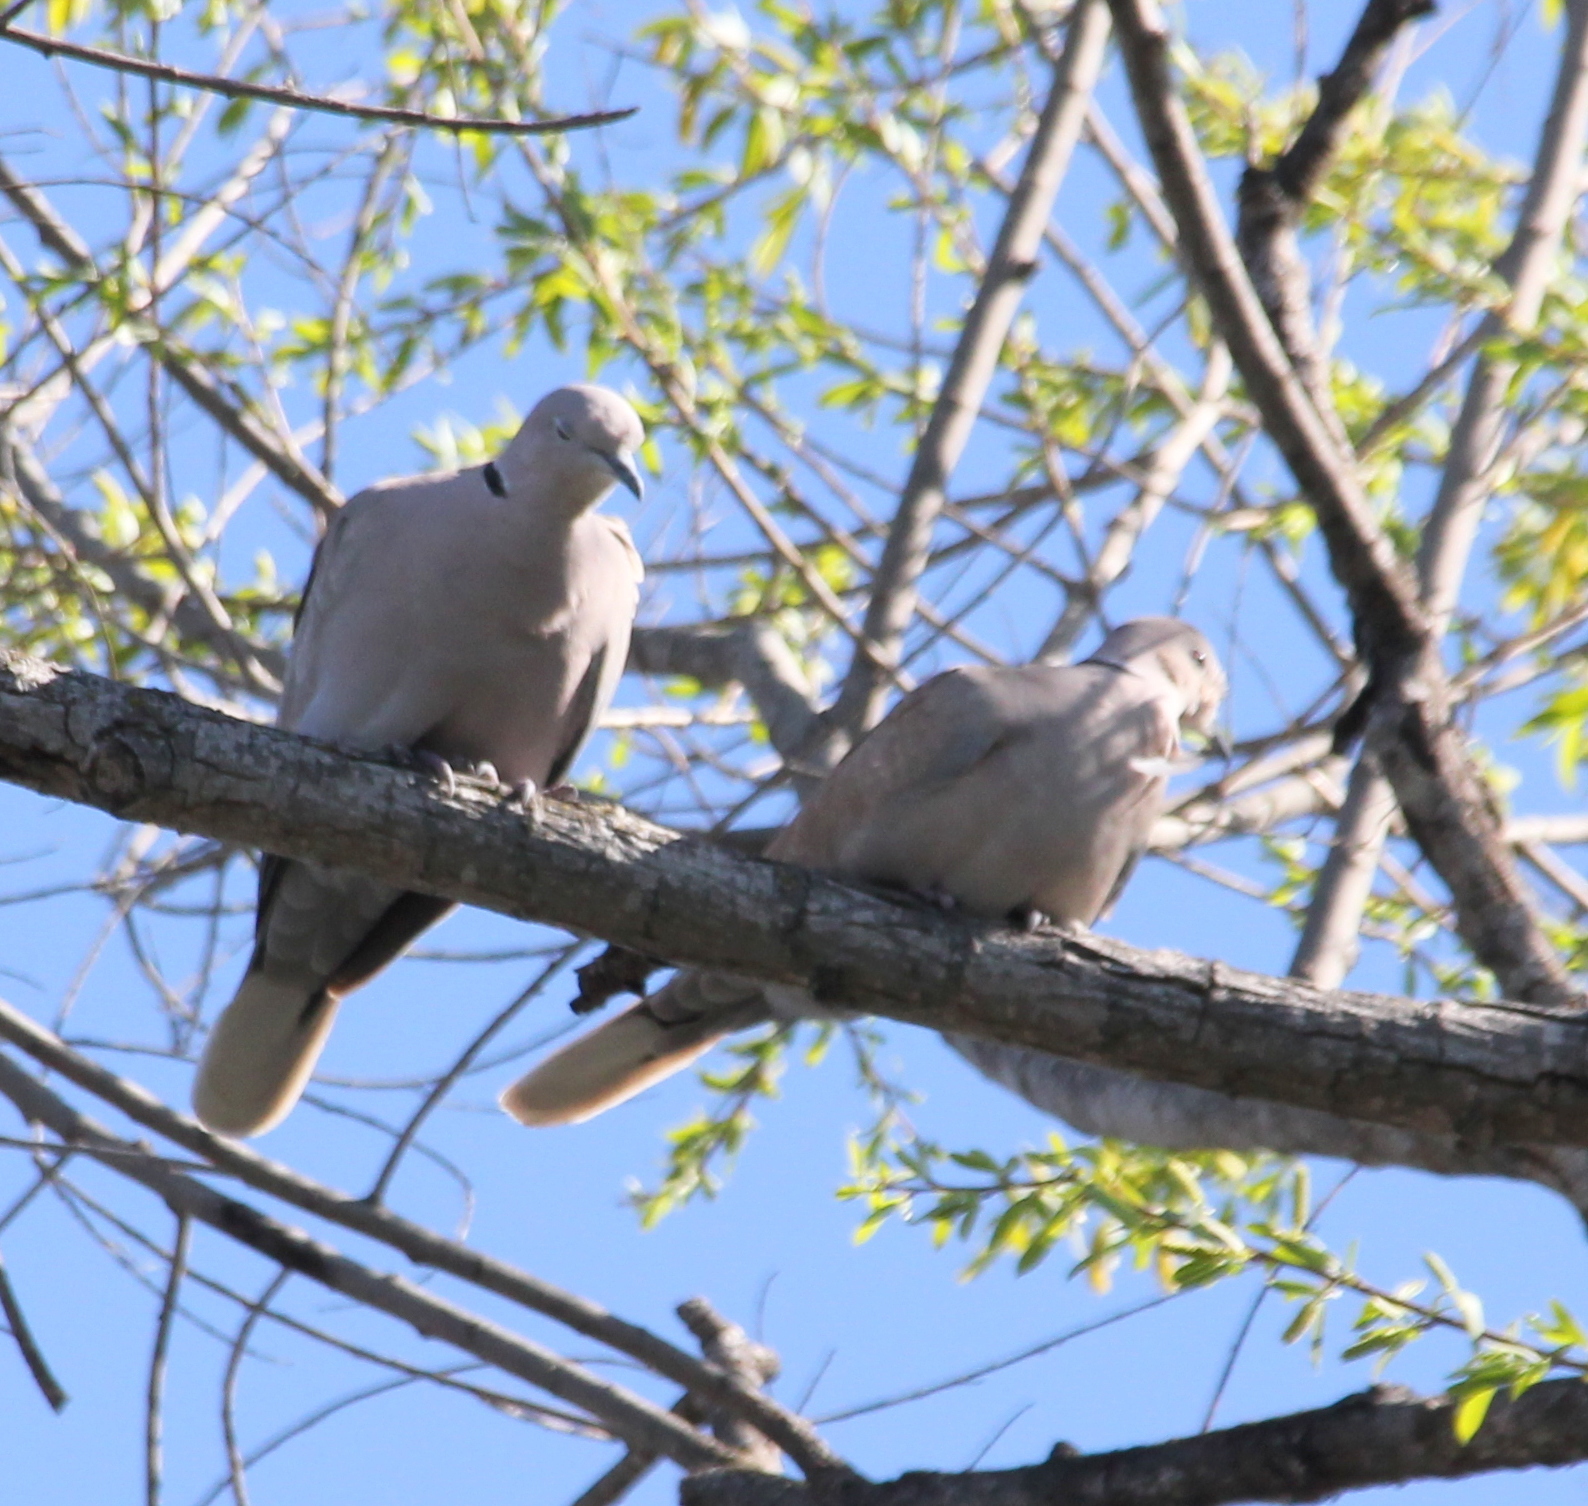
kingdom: Animalia
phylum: Chordata
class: Aves
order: Columbiformes
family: Columbidae
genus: Streptopelia
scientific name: Streptopelia decaocto
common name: Eurasian collared dove
